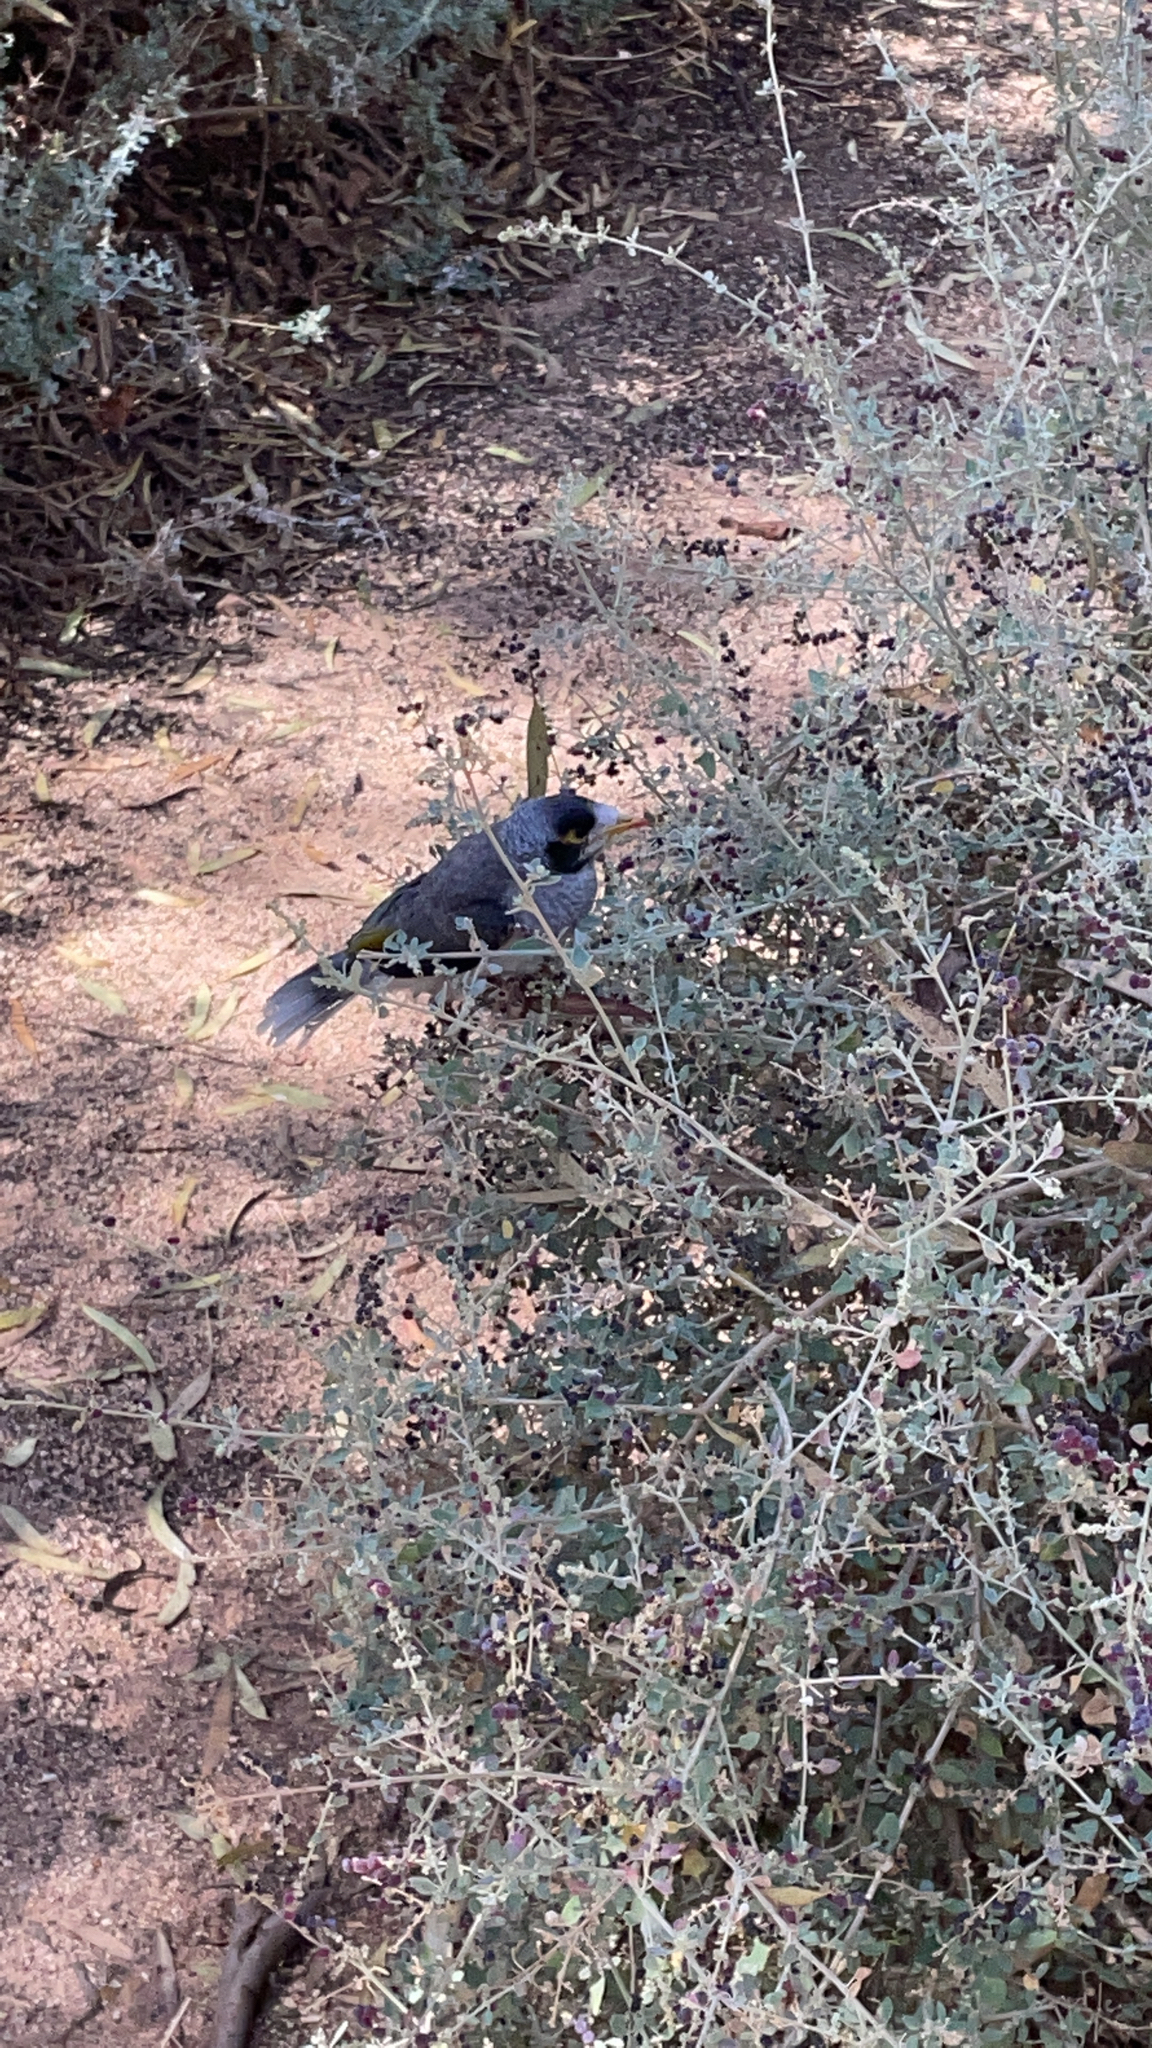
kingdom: Animalia
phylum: Chordata
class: Aves
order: Passeriformes
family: Meliphagidae
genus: Manorina
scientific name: Manorina melanocephala
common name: Noisy miner
